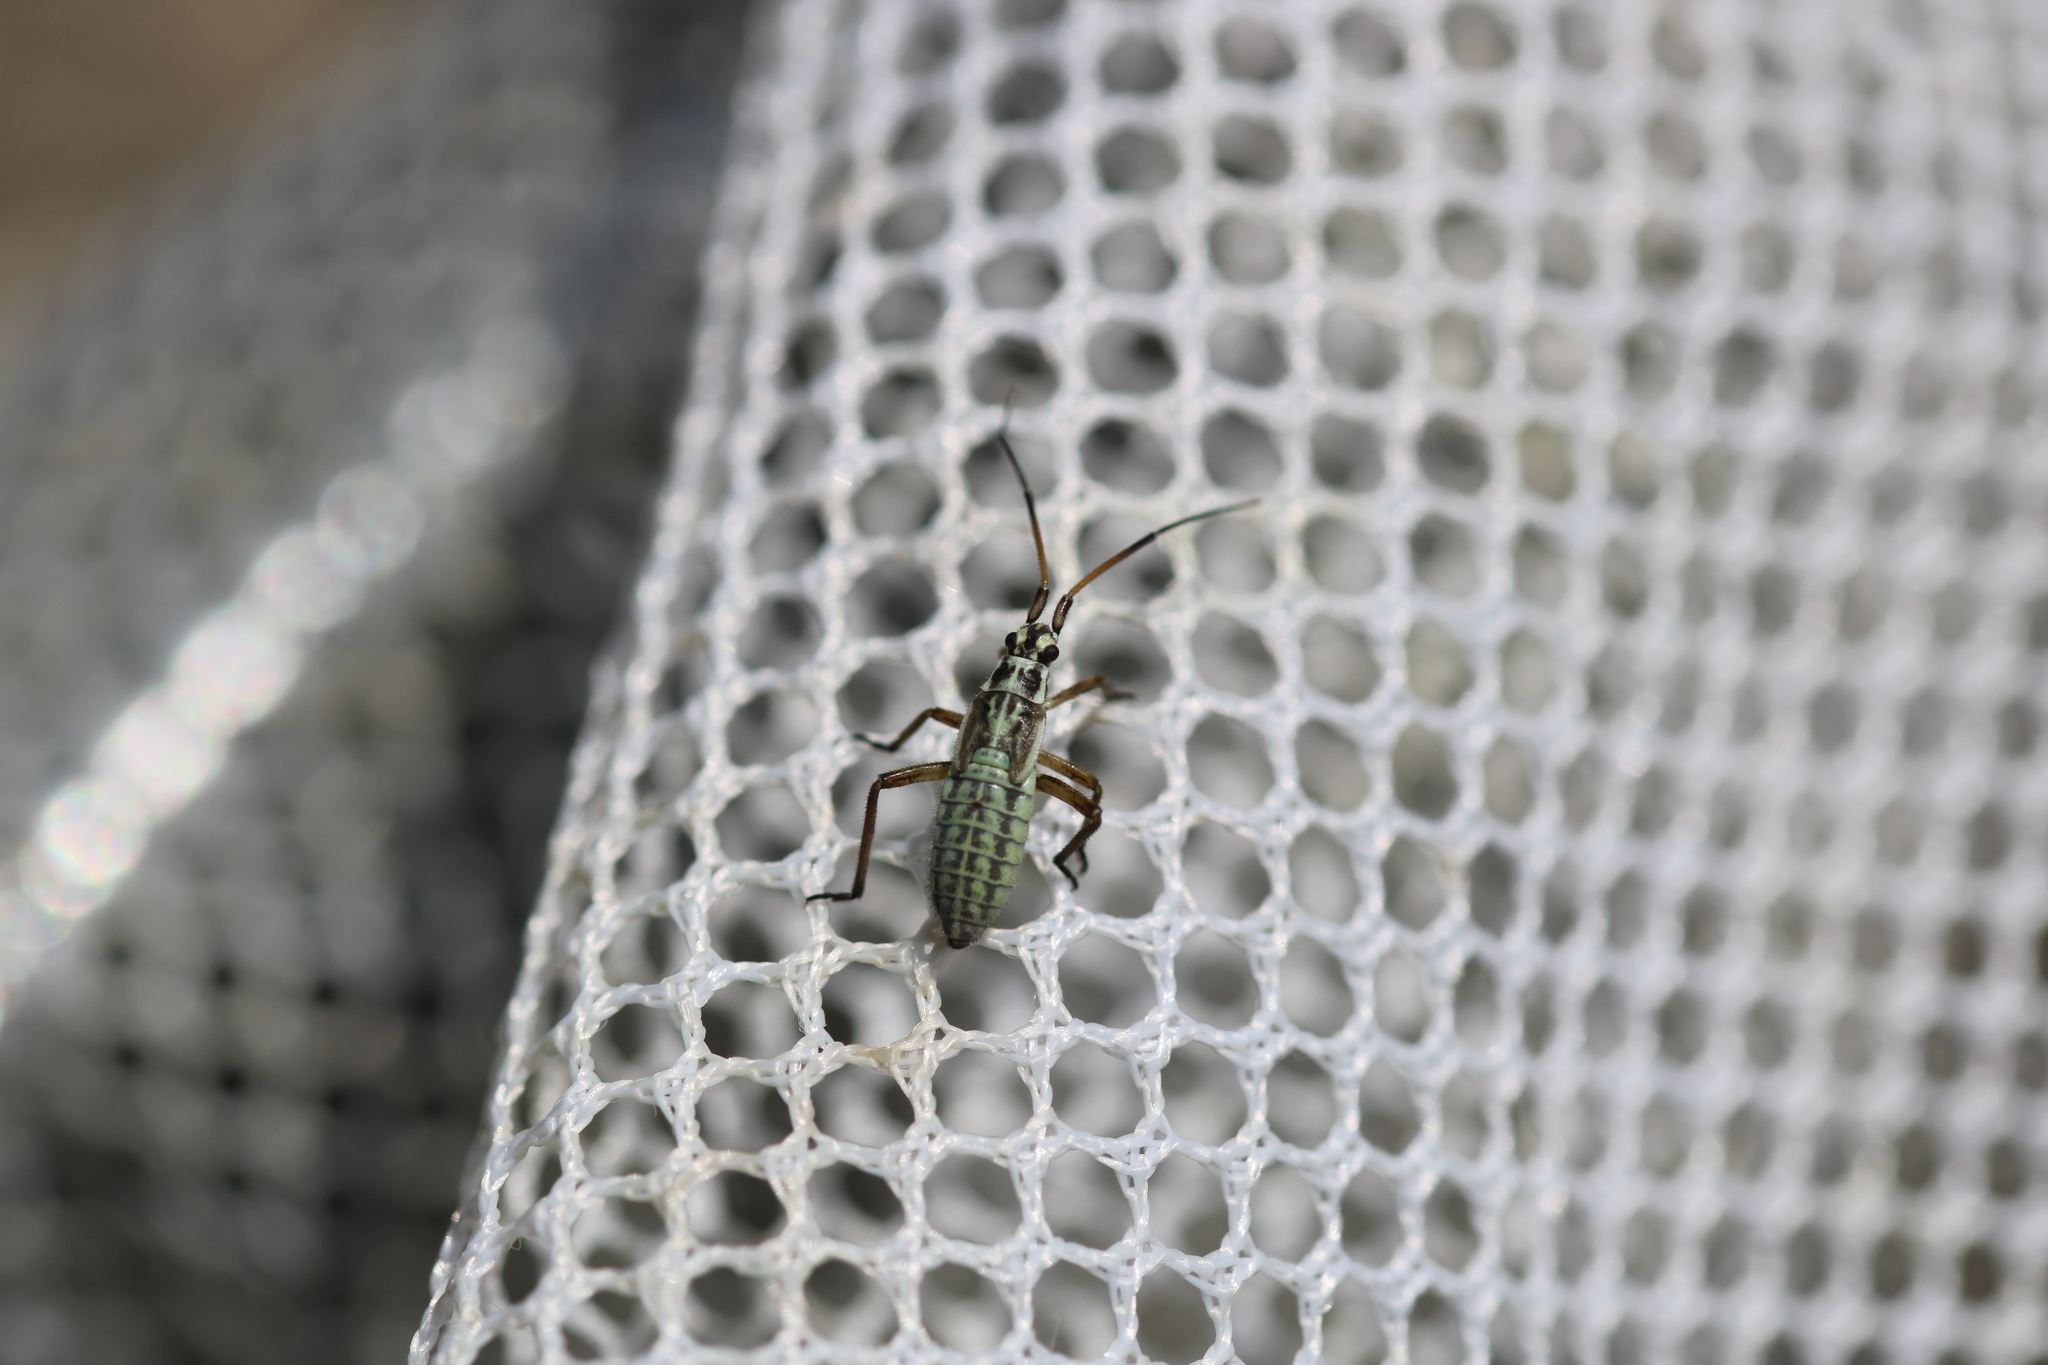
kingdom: Animalia
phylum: Arthropoda
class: Insecta
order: Hemiptera
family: Miridae
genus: Leptopterna
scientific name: Leptopterna dolabrata
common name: Meadow plant bug
